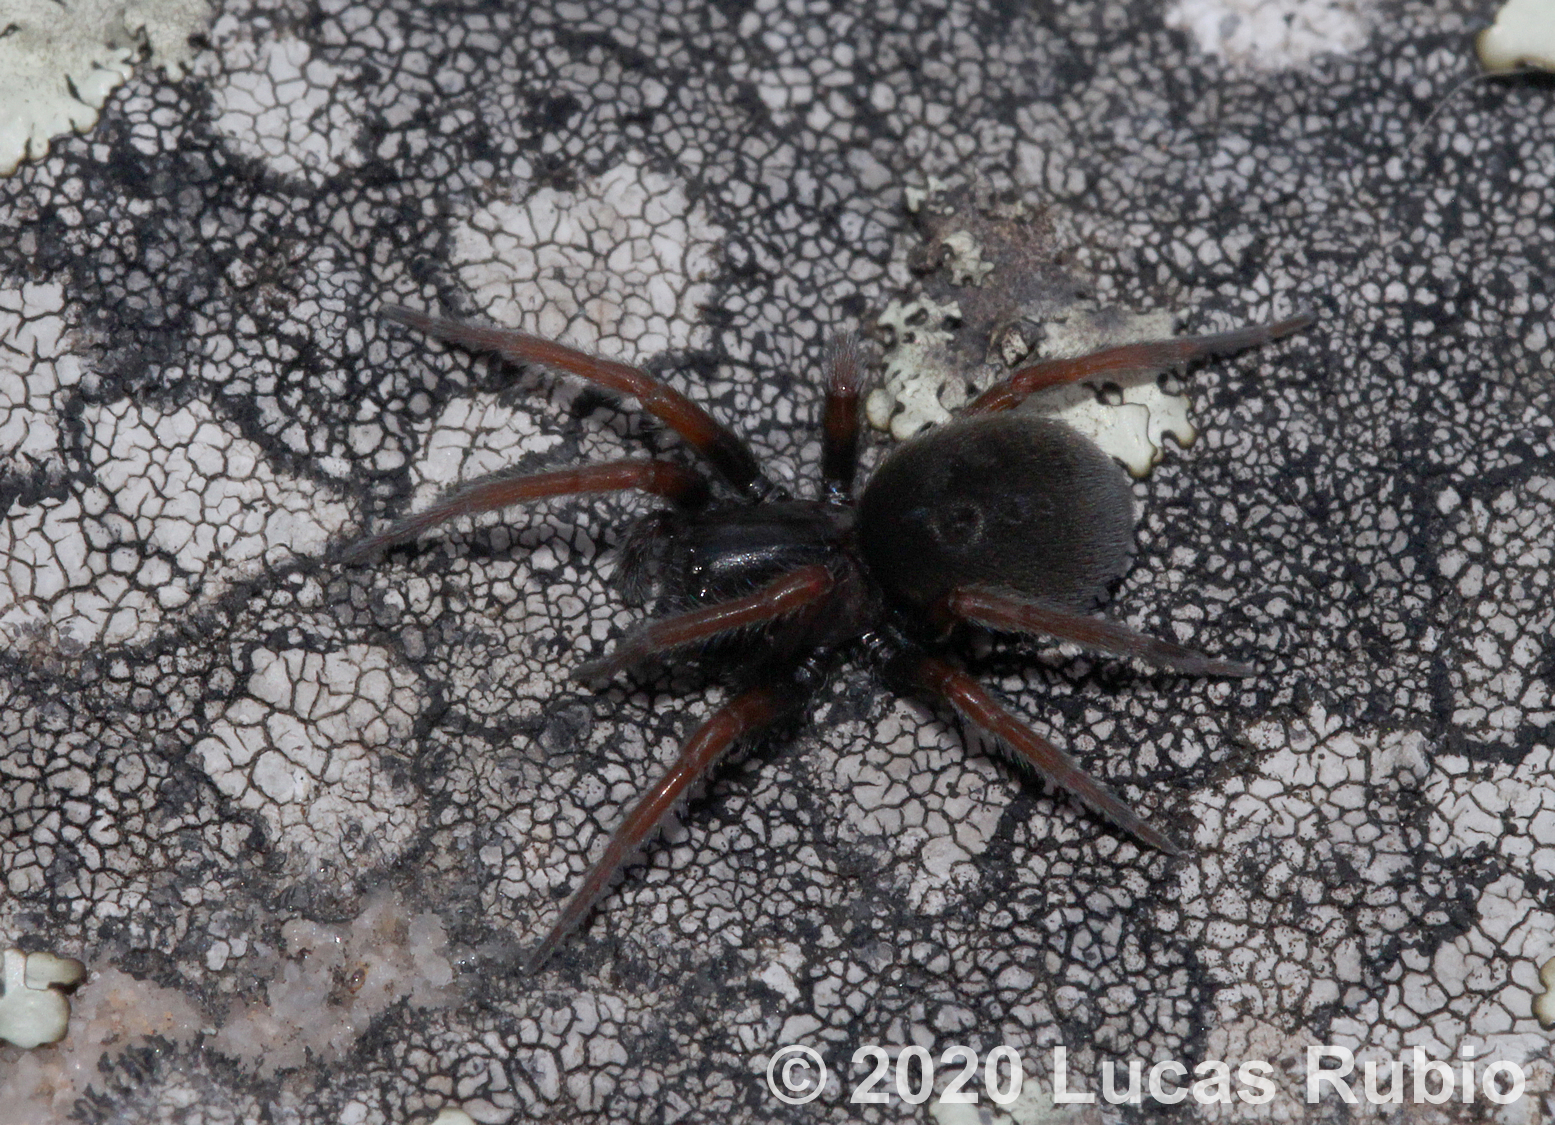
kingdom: Animalia
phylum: Arthropoda
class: Arachnida
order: Araneae
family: Titanoecidae
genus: Goeldia
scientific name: Goeldia
